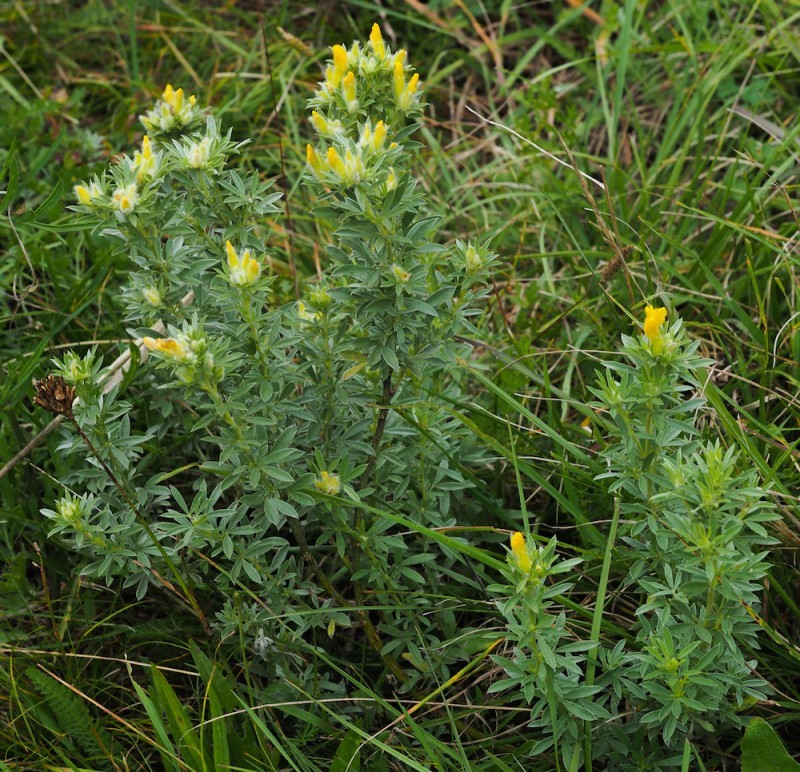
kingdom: Plantae
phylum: Tracheophyta
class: Magnoliopsida
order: Fabales
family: Fabaceae
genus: Chamaecytisus
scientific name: Chamaecytisus austriacus
